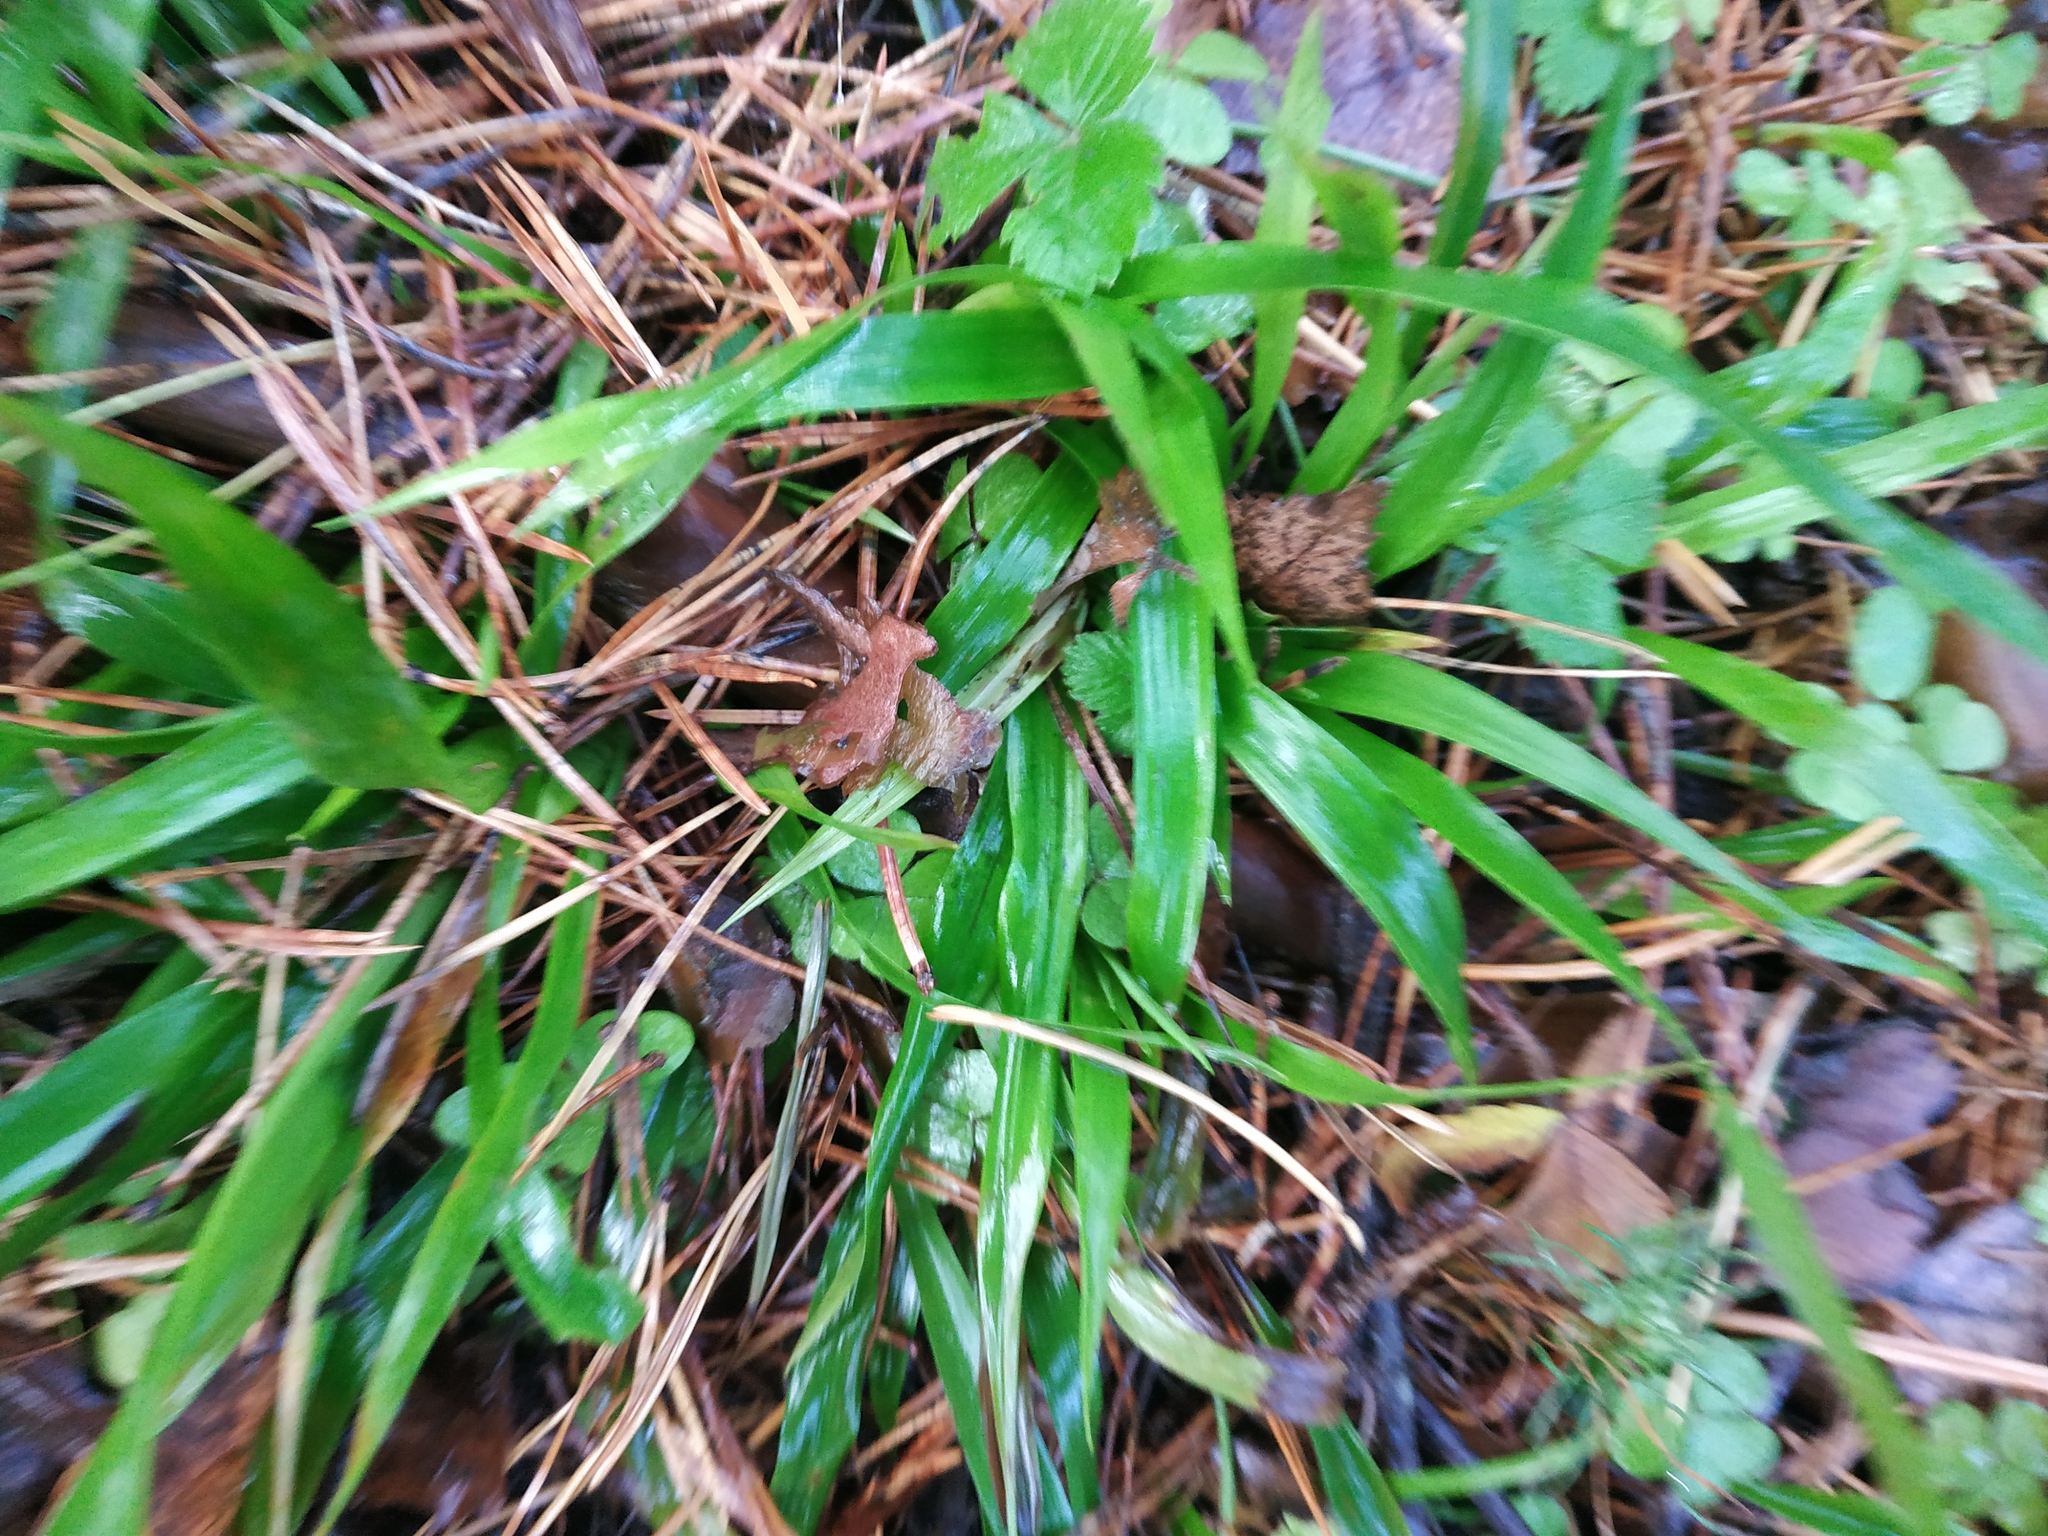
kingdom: Plantae
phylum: Tracheophyta
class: Liliopsida
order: Poales
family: Juncaceae
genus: Luzula
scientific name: Luzula pilosa
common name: Hairy wood-rush
